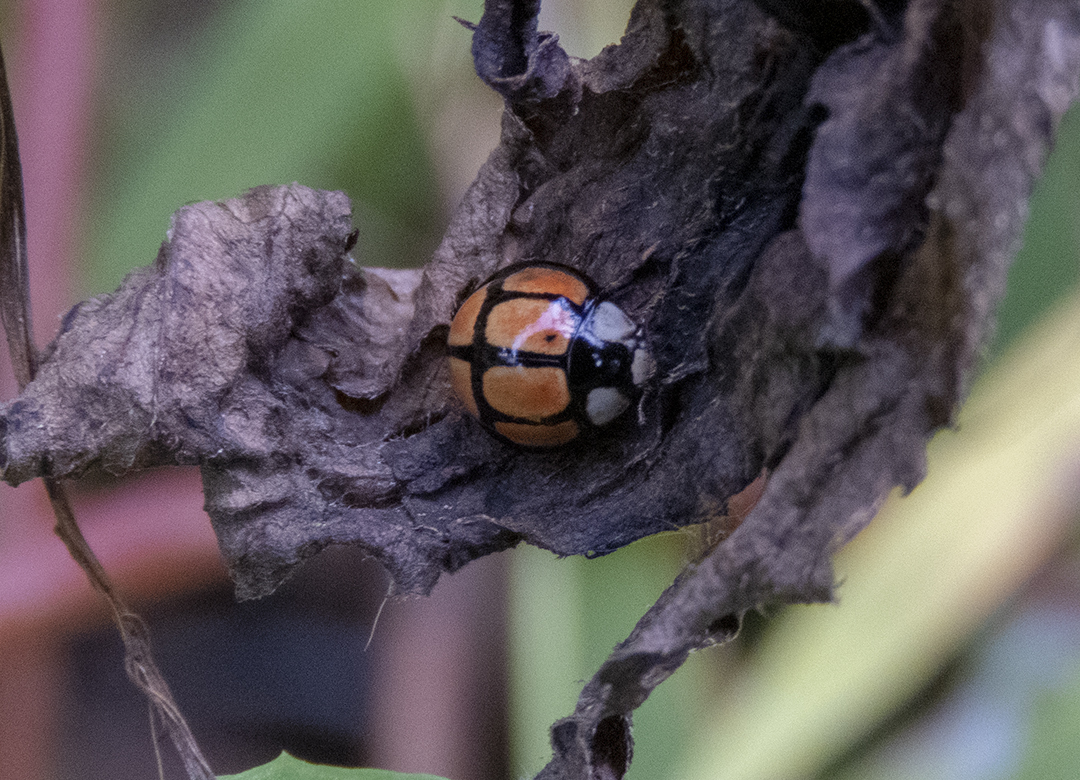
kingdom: Animalia
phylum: Arthropoda
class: Insecta
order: Coleoptera
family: Coccinellidae
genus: Oenopia
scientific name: Oenopia sexareata
